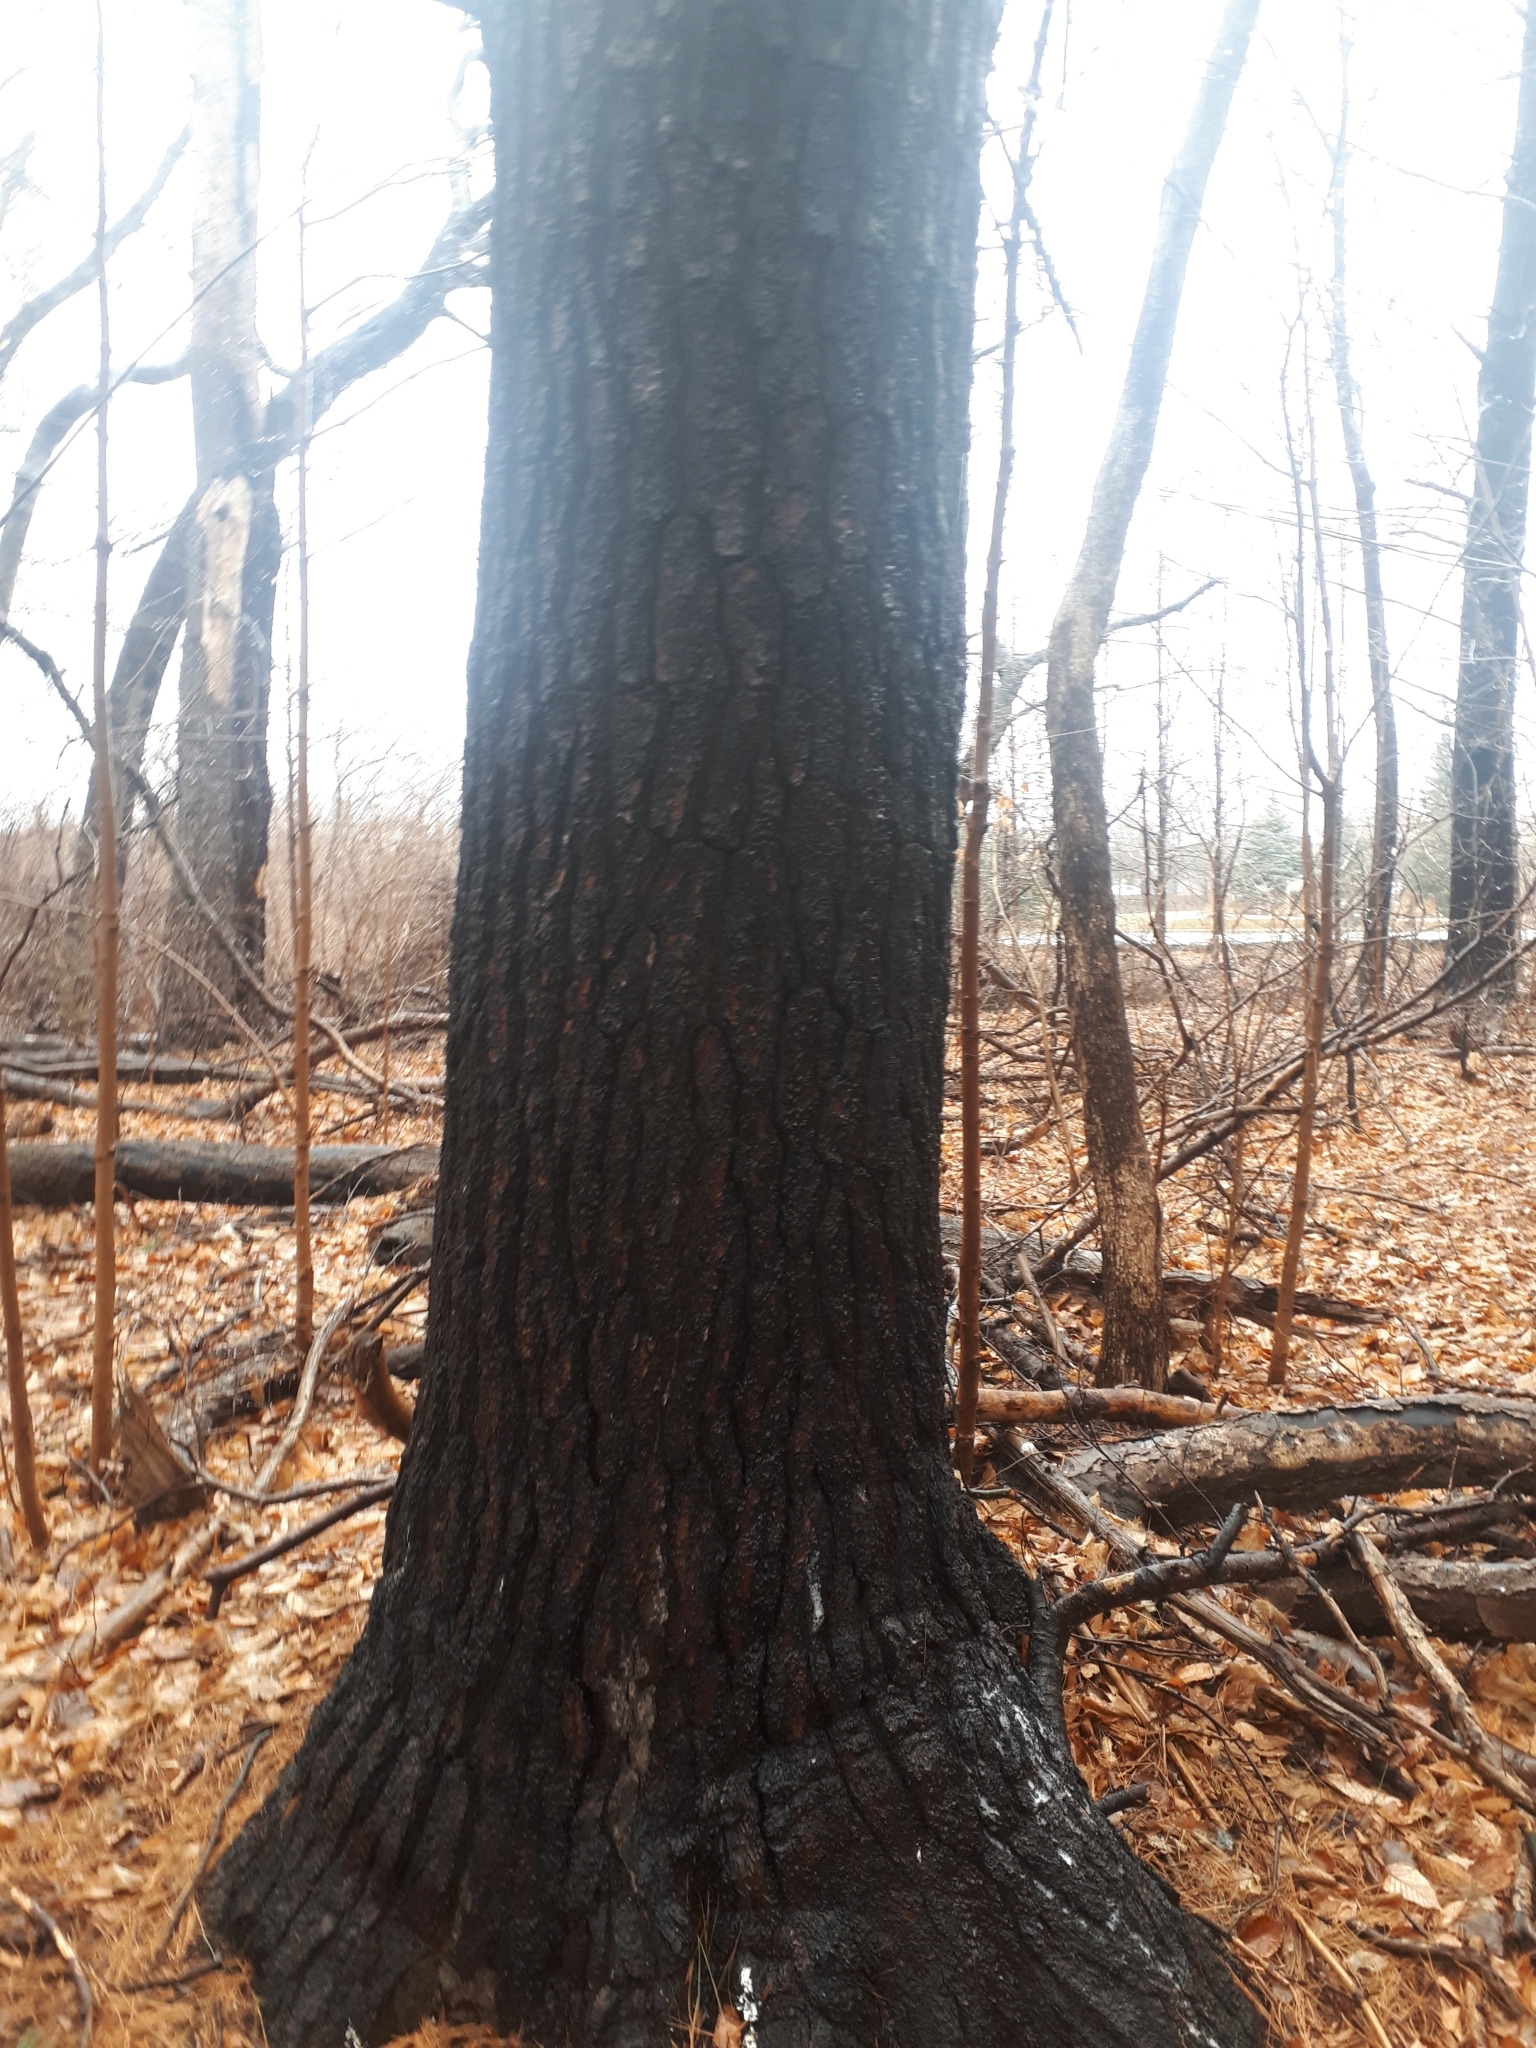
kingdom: Plantae
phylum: Tracheophyta
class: Pinopsida
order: Pinales
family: Pinaceae
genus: Pinus
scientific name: Pinus strobus
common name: Weymouth pine
